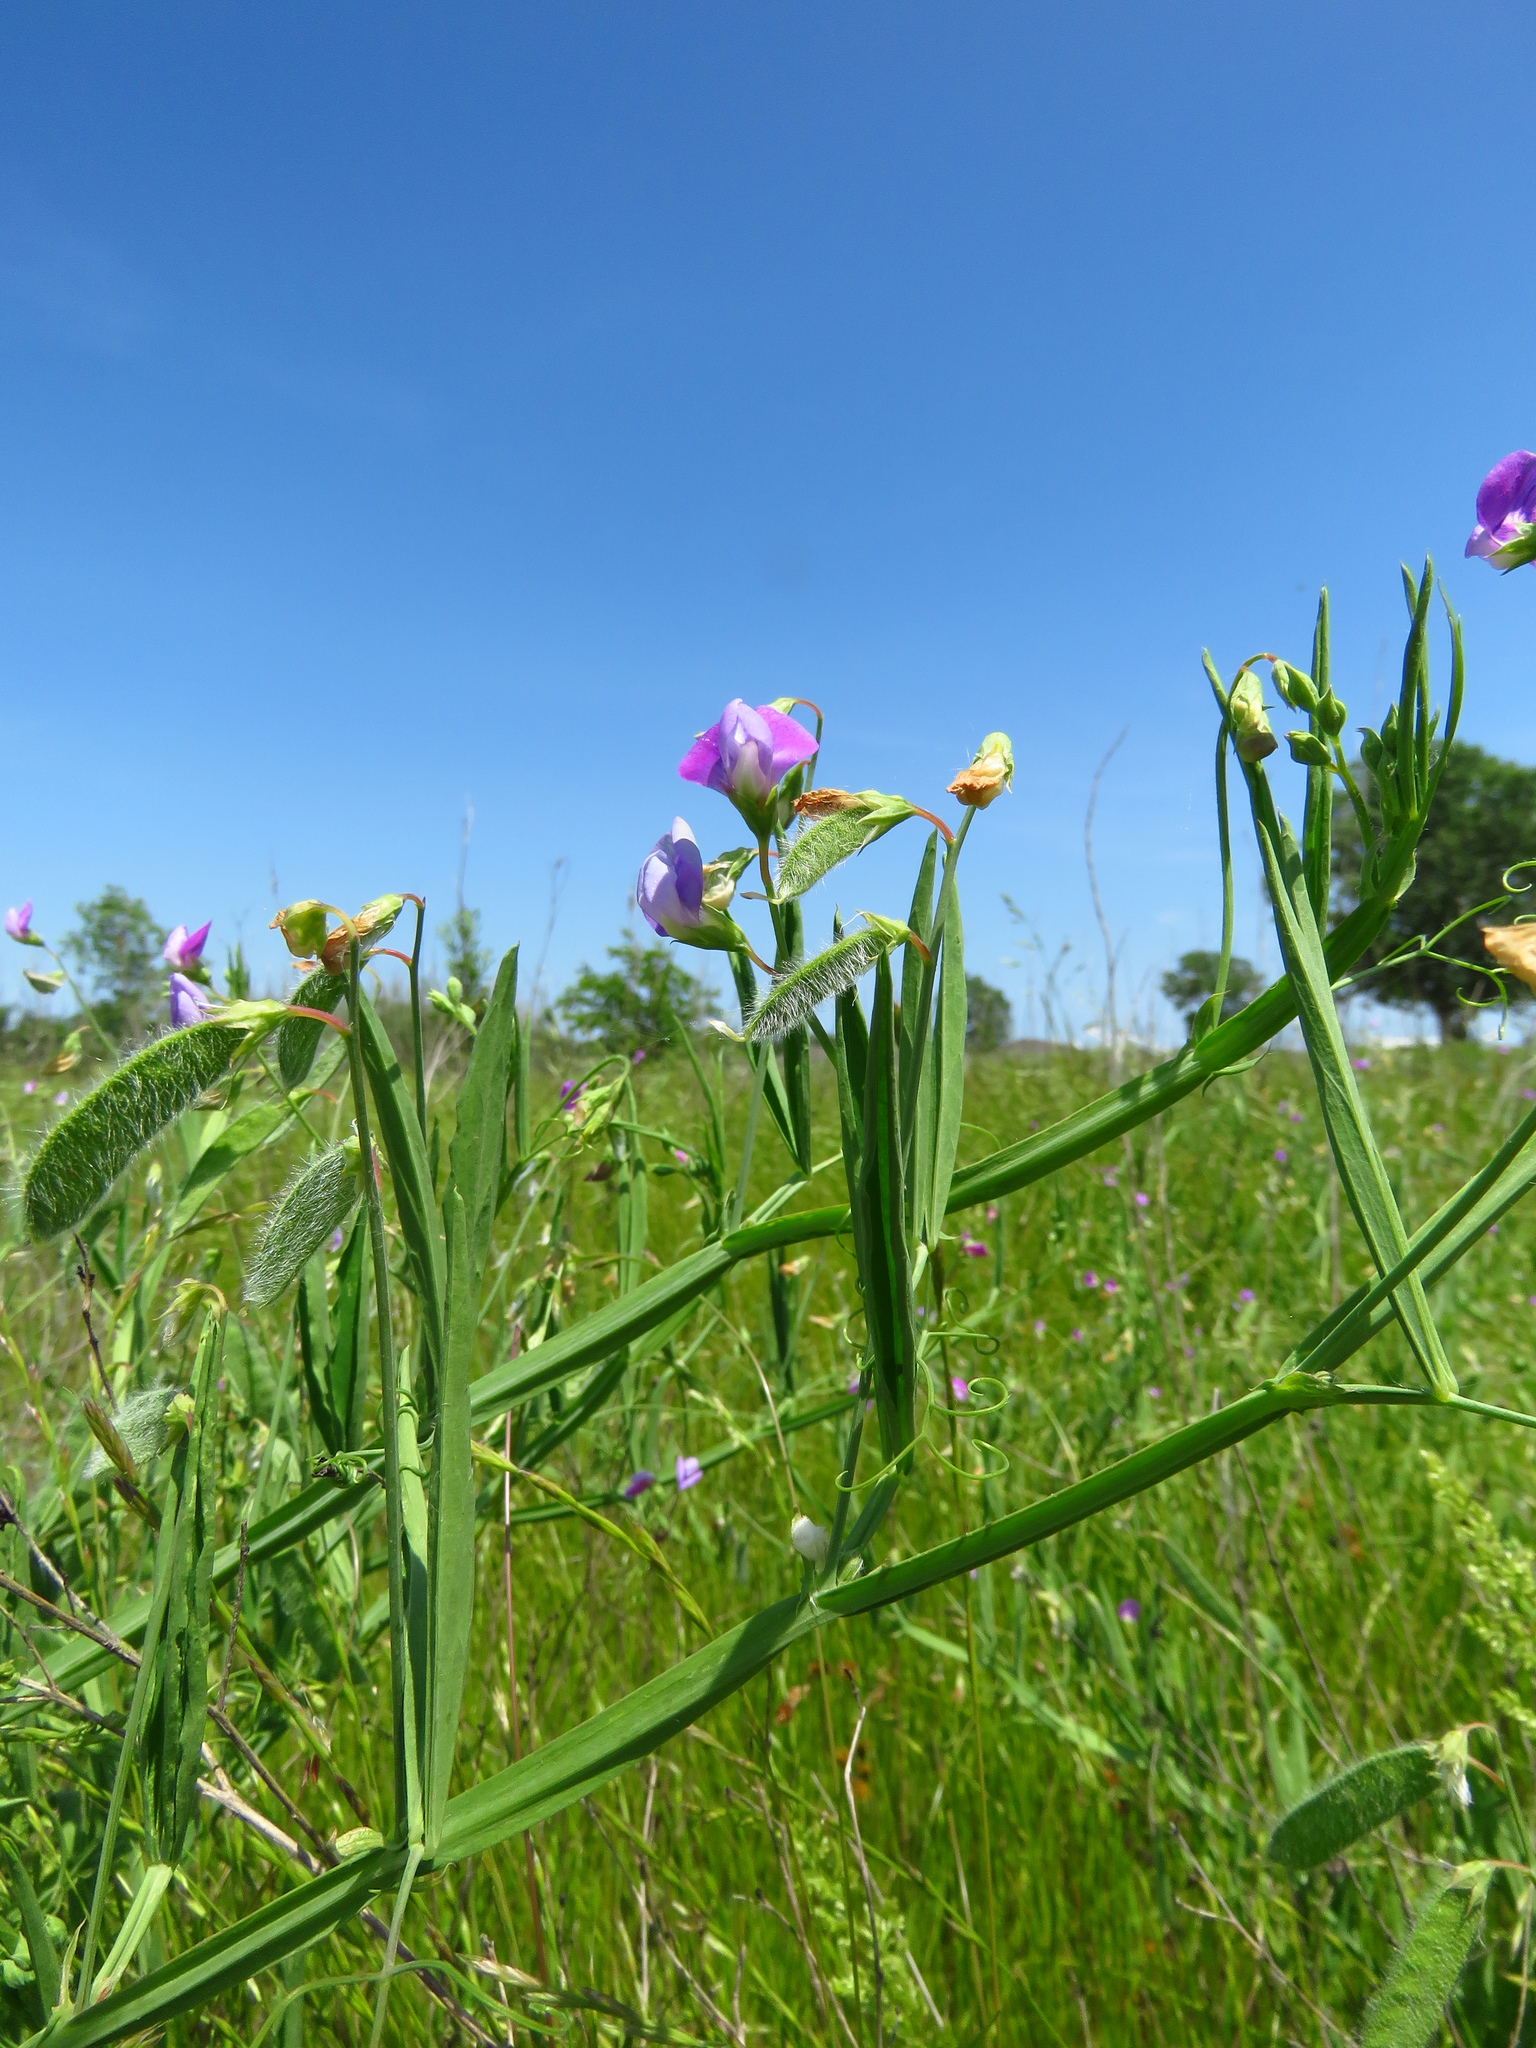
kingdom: Plantae
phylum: Tracheophyta
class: Magnoliopsida
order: Fabales
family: Fabaceae
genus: Lathyrus
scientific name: Lathyrus hirsutus
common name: Hairy vetchling
